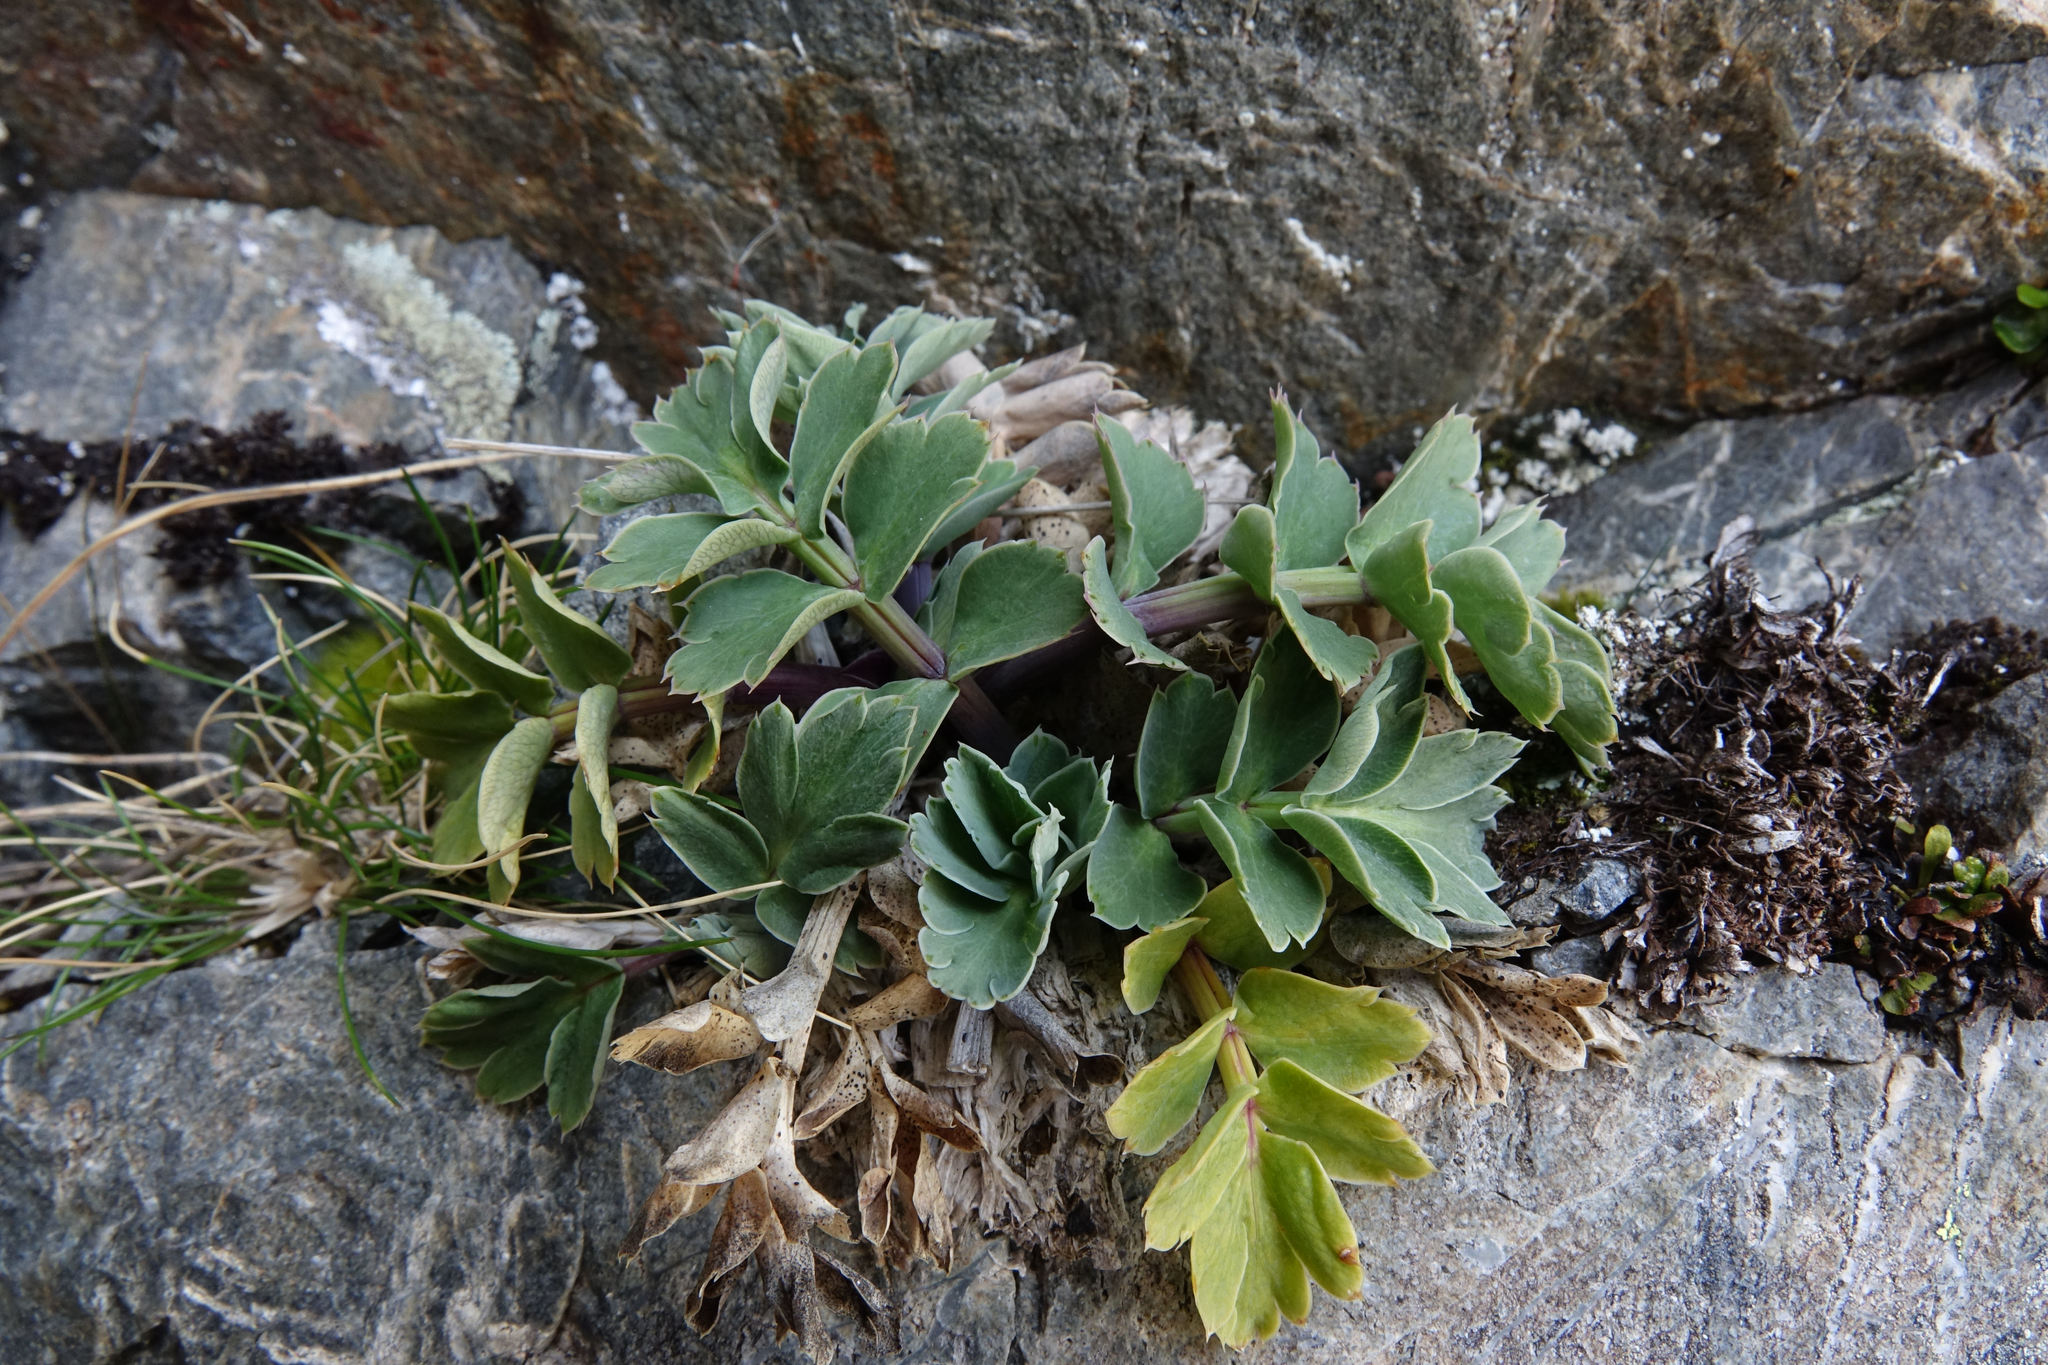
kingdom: Plantae
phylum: Tracheophyta
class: Magnoliopsida
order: Apiales
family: Apiaceae
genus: Anisotome
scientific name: Anisotome pilifera
